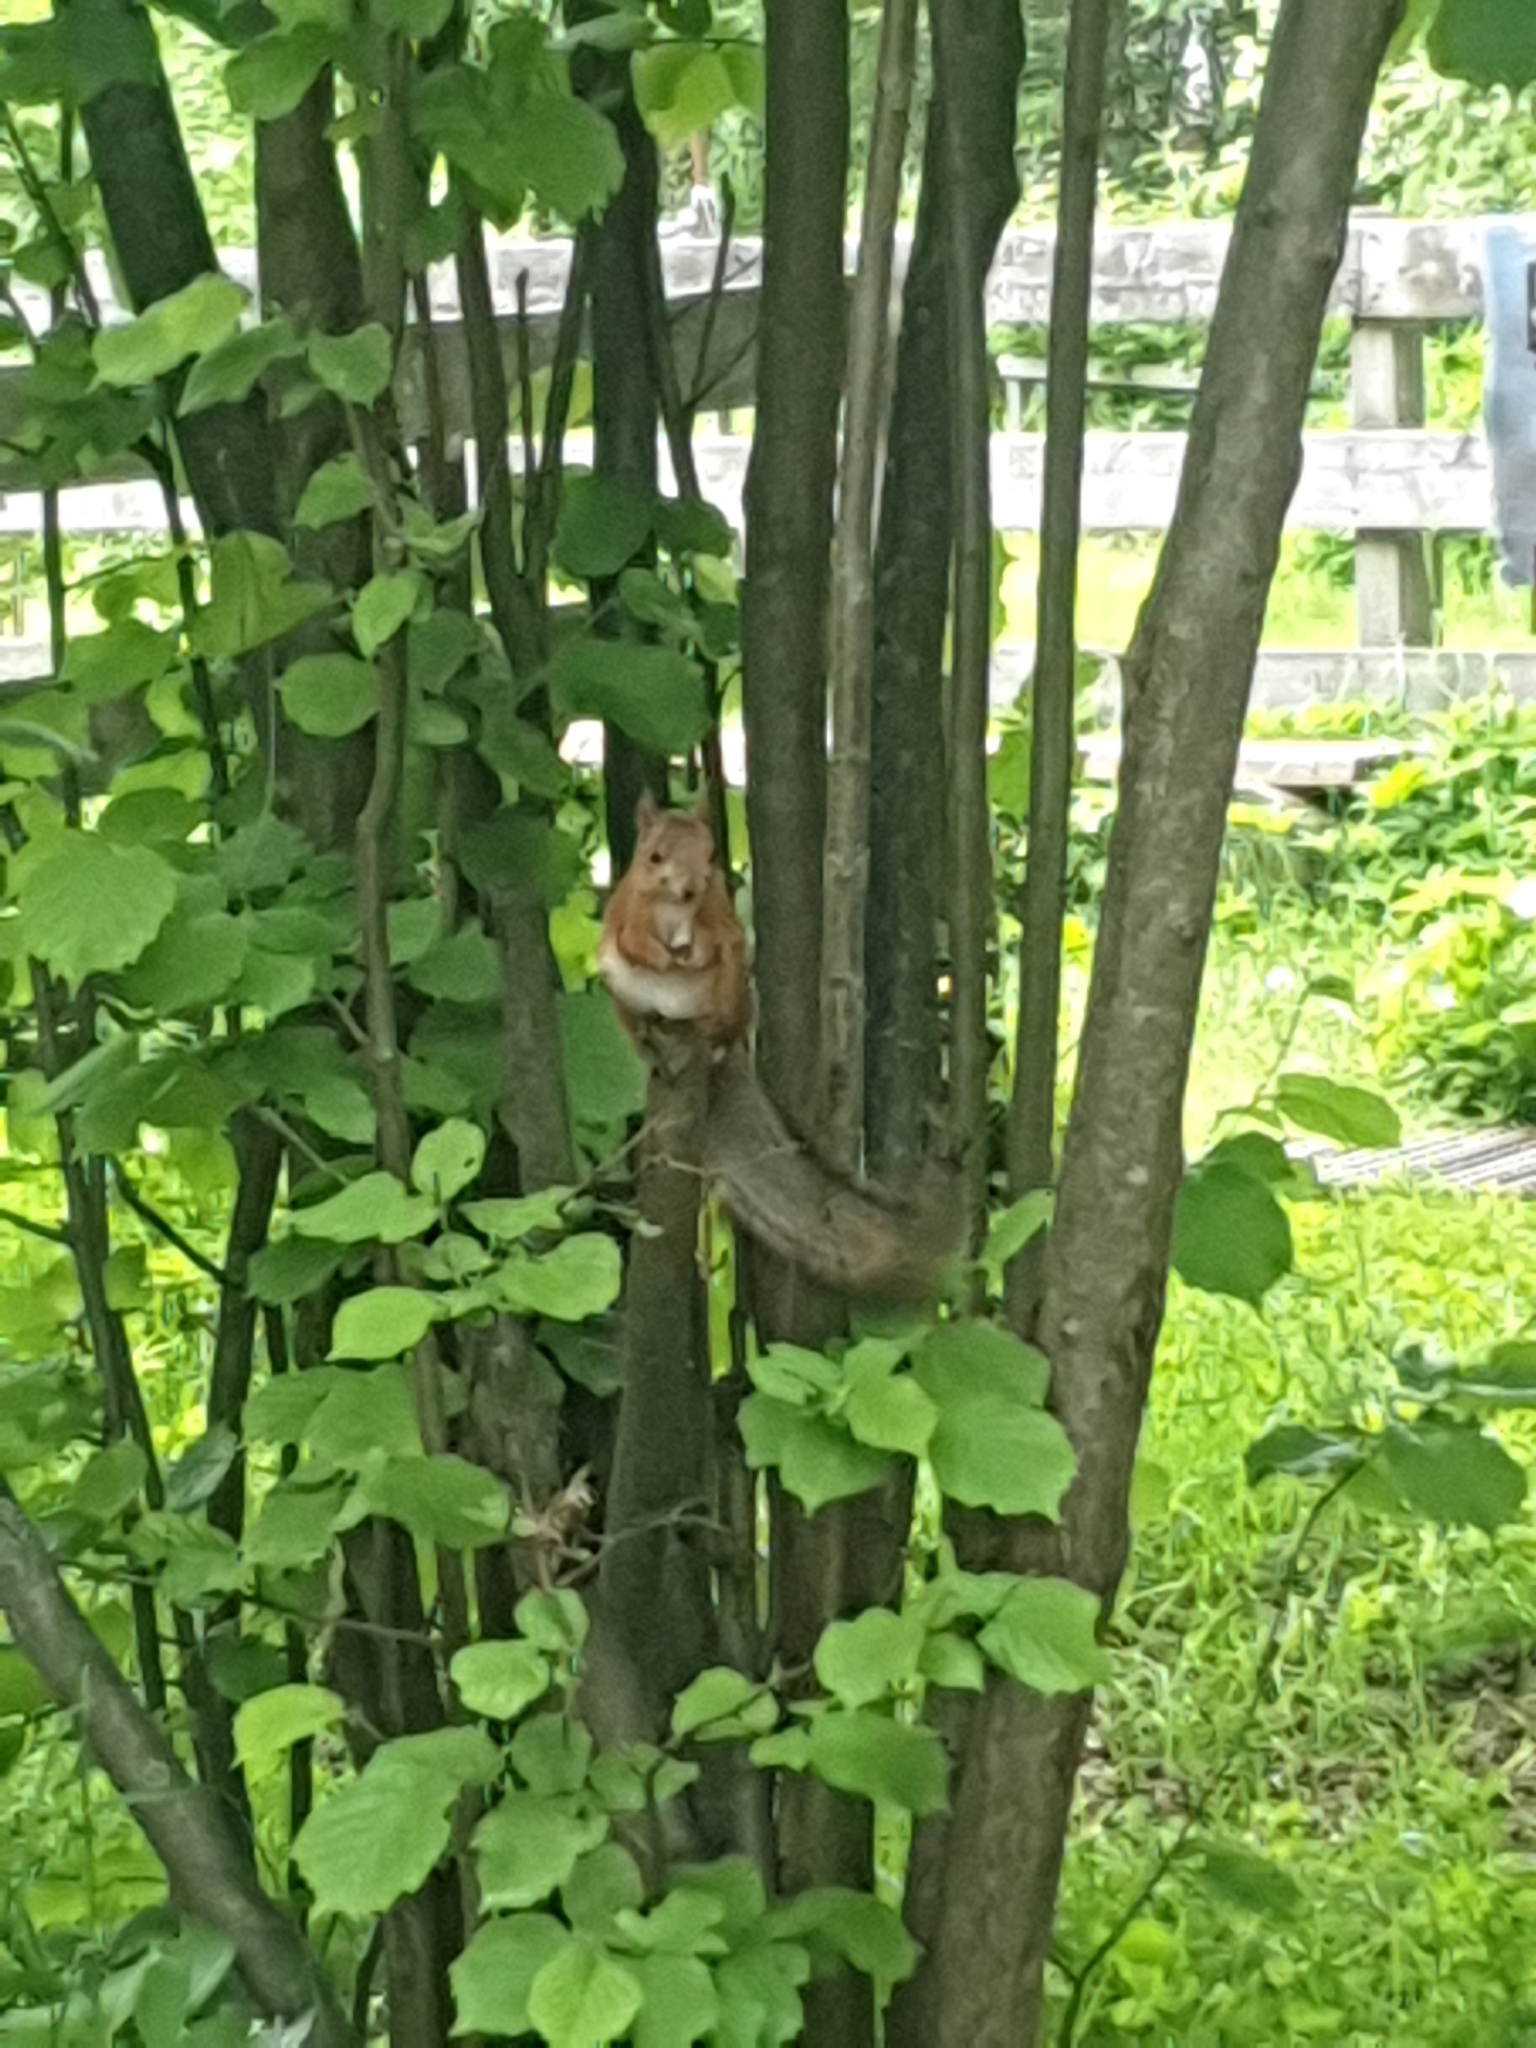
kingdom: Animalia
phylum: Chordata
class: Mammalia
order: Rodentia
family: Sciuridae
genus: Sciurus
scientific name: Sciurus vulgaris
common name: Eurasian red squirrel
